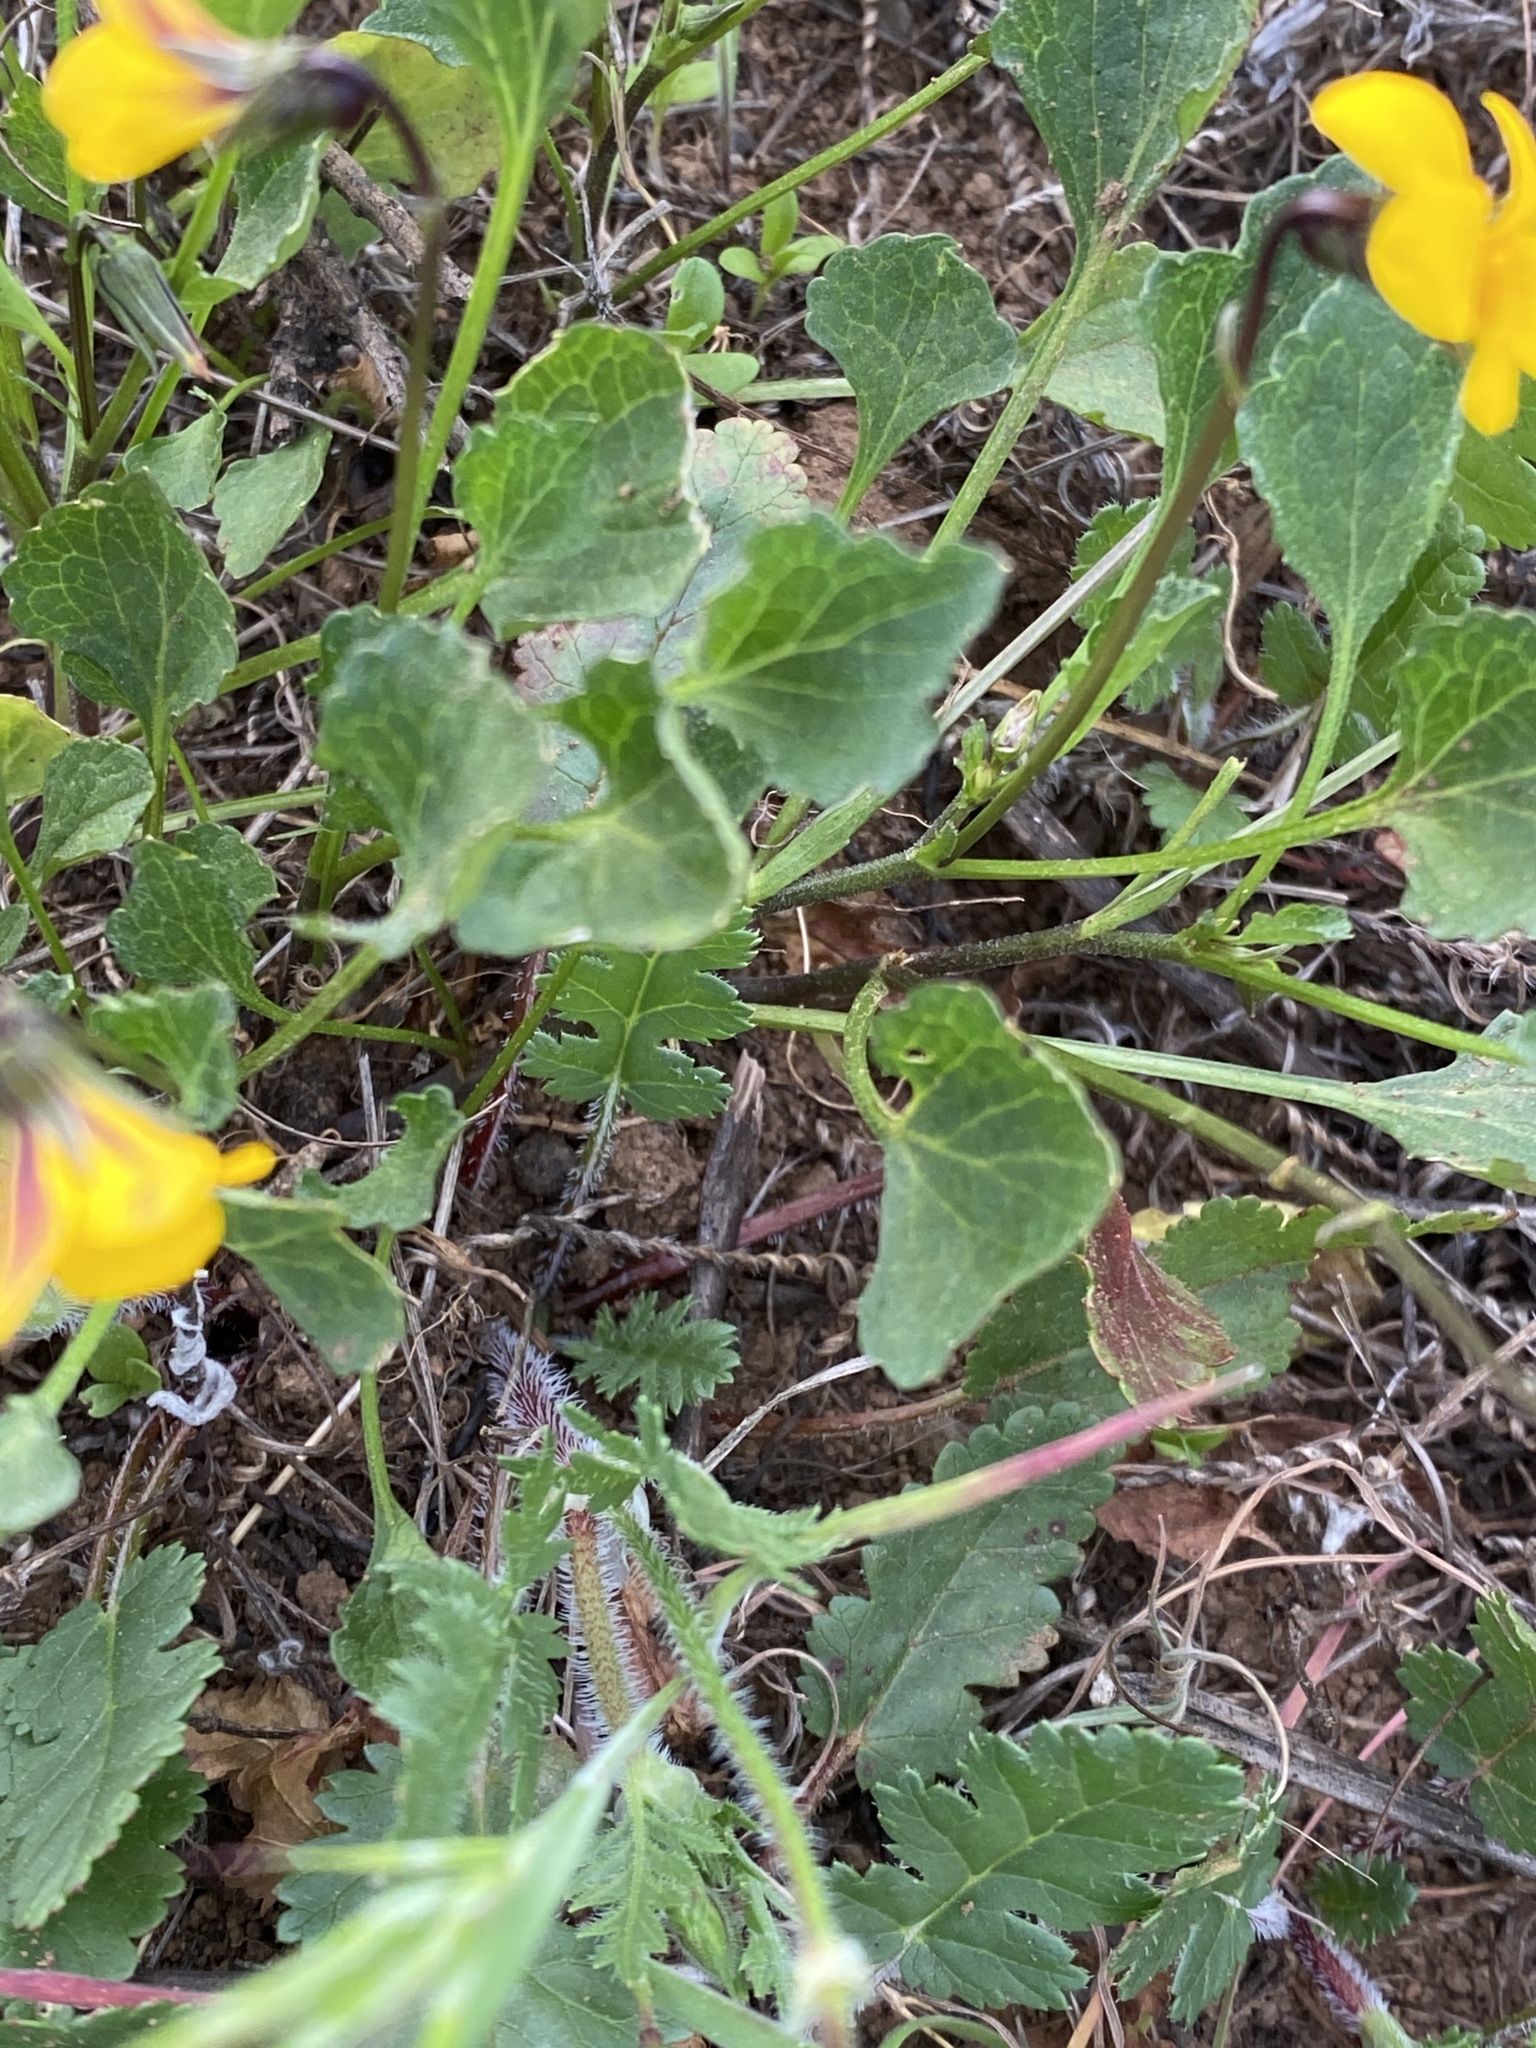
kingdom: Plantae
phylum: Tracheophyta
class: Magnoliopsida
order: Malpighiales
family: Violaceae
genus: Viola
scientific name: Viola pedunculata
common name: California golden violet
